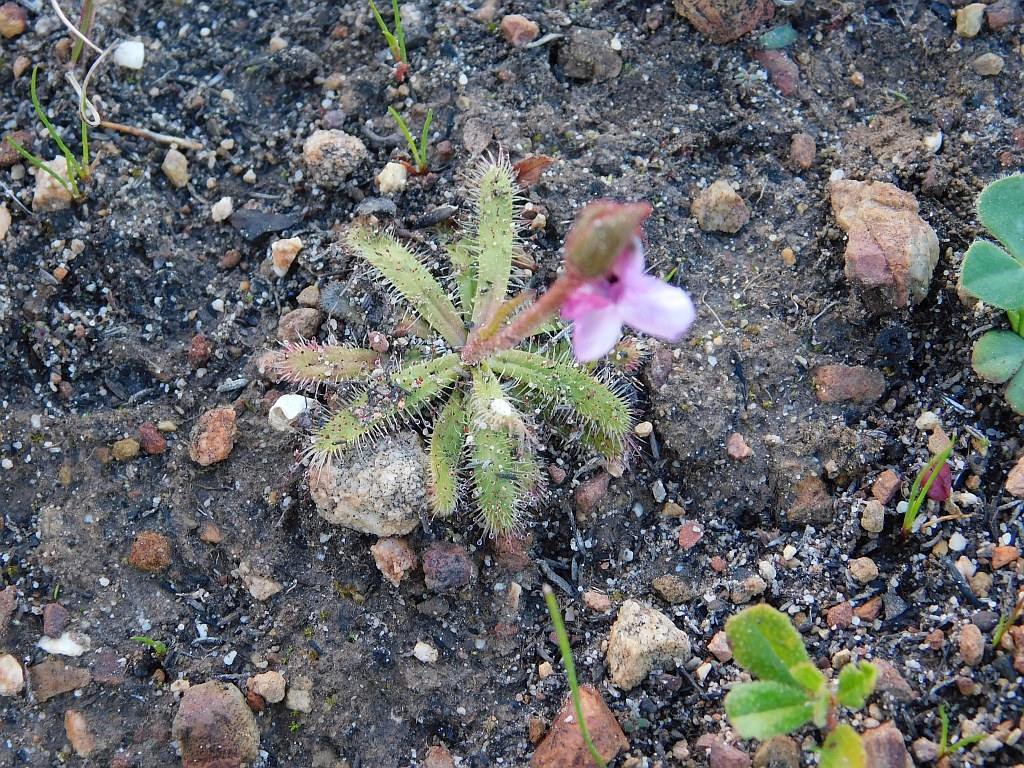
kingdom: Plantae
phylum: Tracheophyta
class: Magnoliopsida
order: Caryophyllales
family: Droseraceae
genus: Drosera
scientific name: Drosera cistiflora
